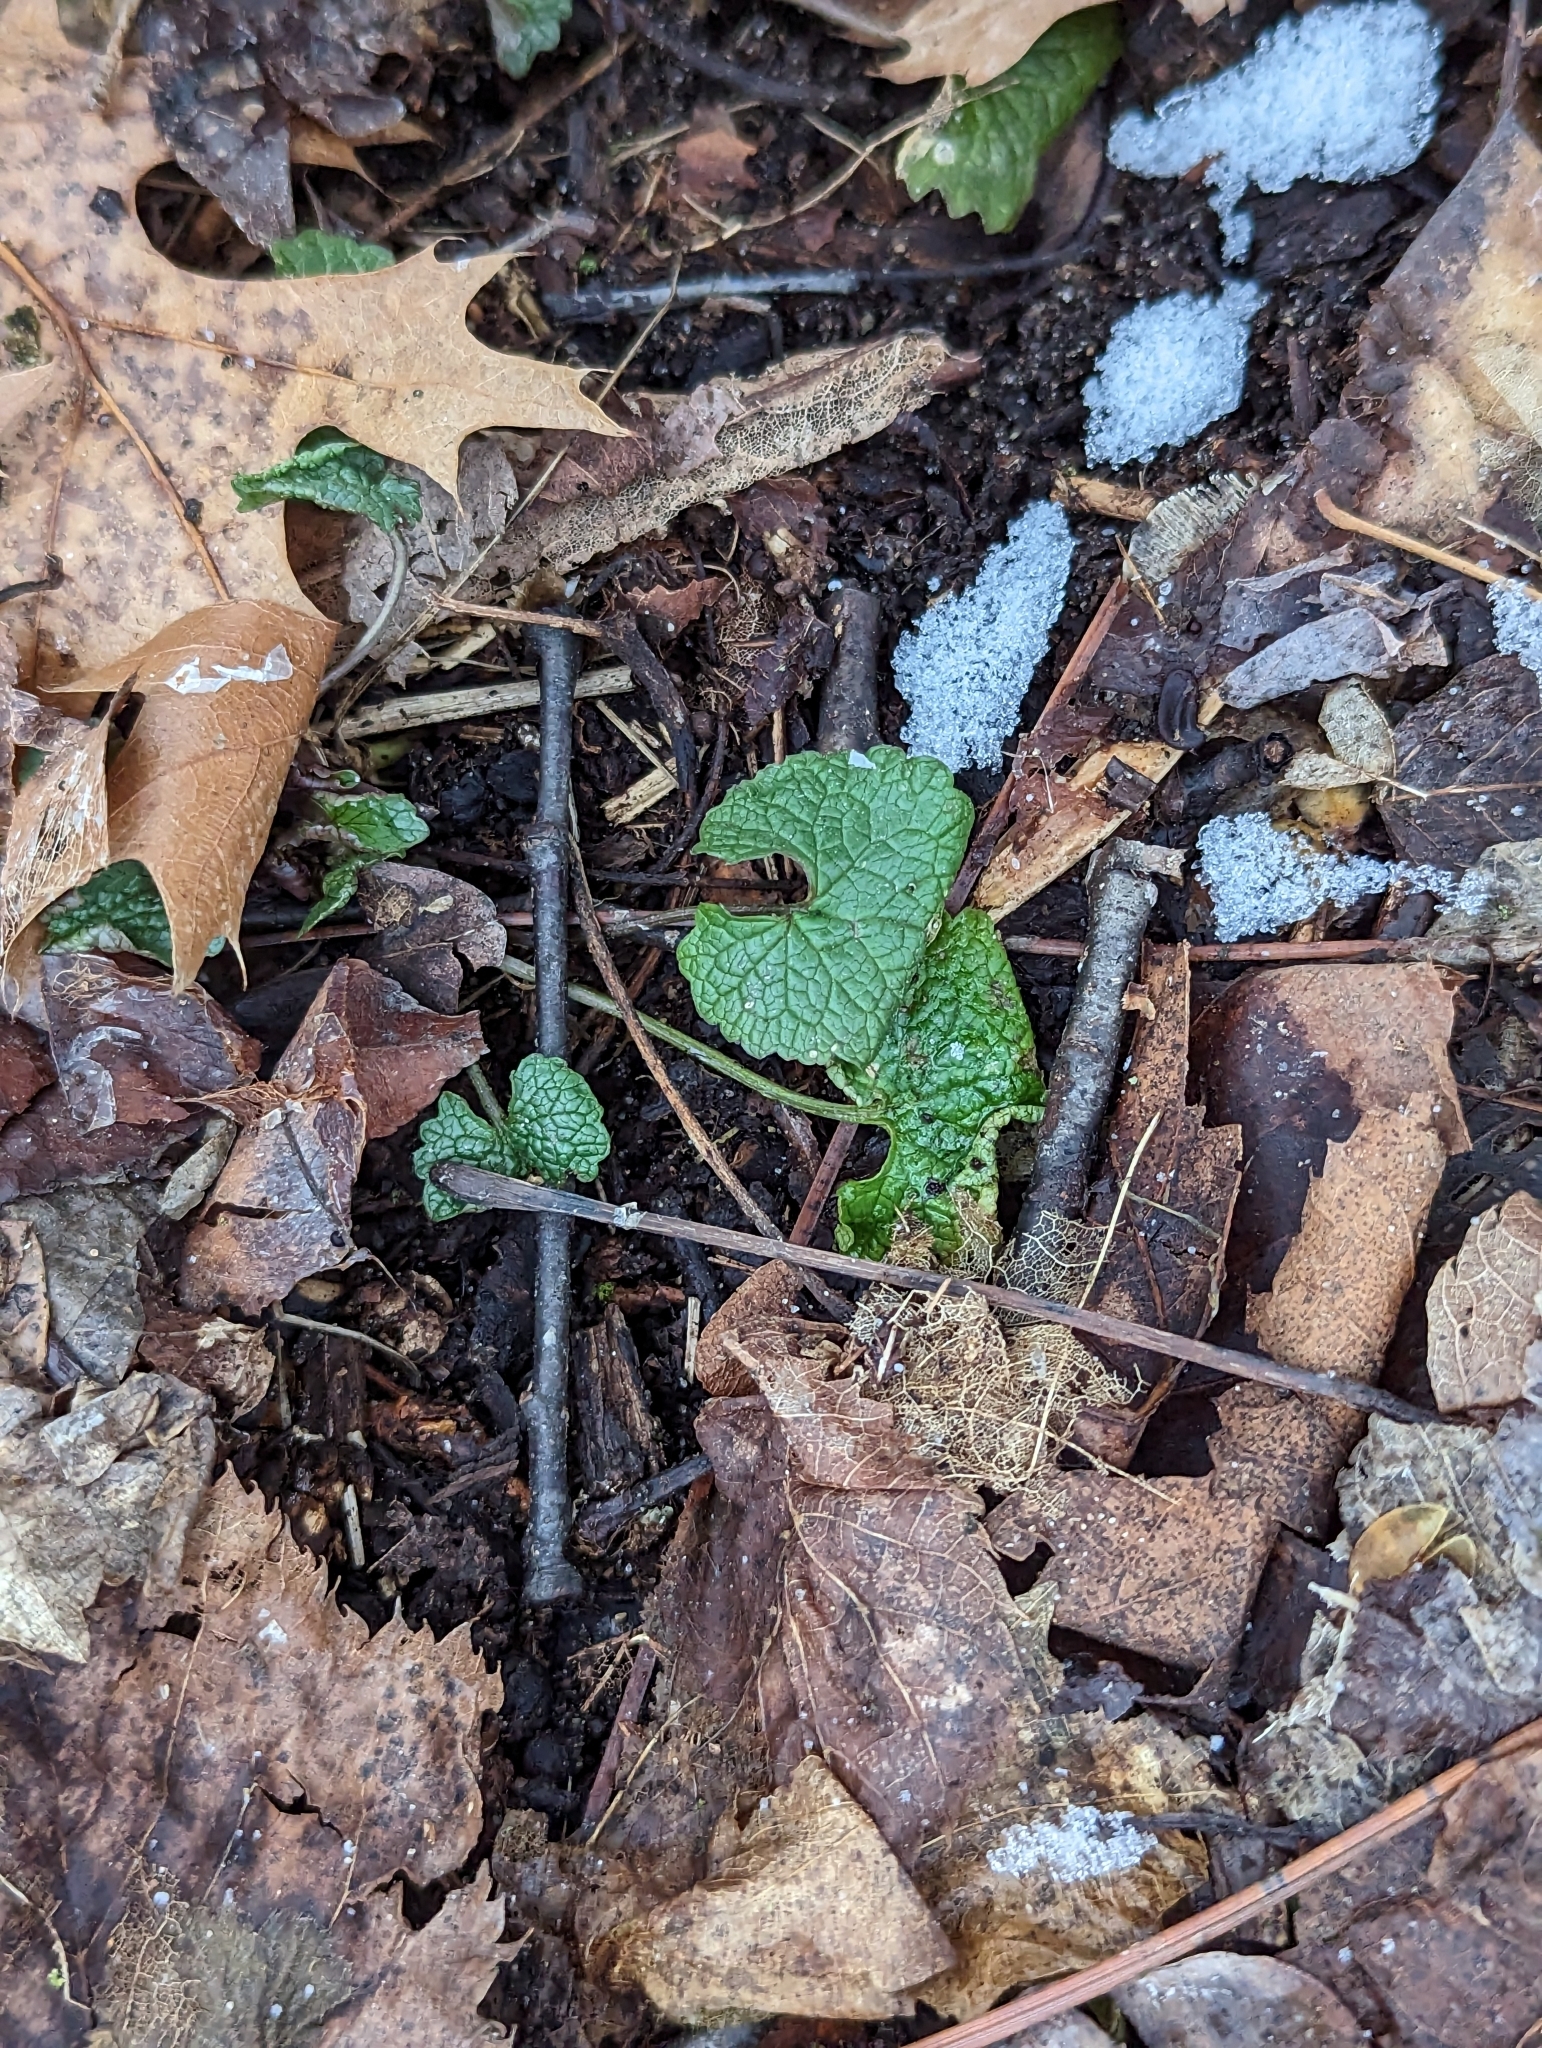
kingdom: Plantae
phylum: Tracheophyta
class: Magnoliopsida
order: Brassicales
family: Brassicaceae
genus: Alliaria
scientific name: Alliaria petiolata
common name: Garlic mustard
